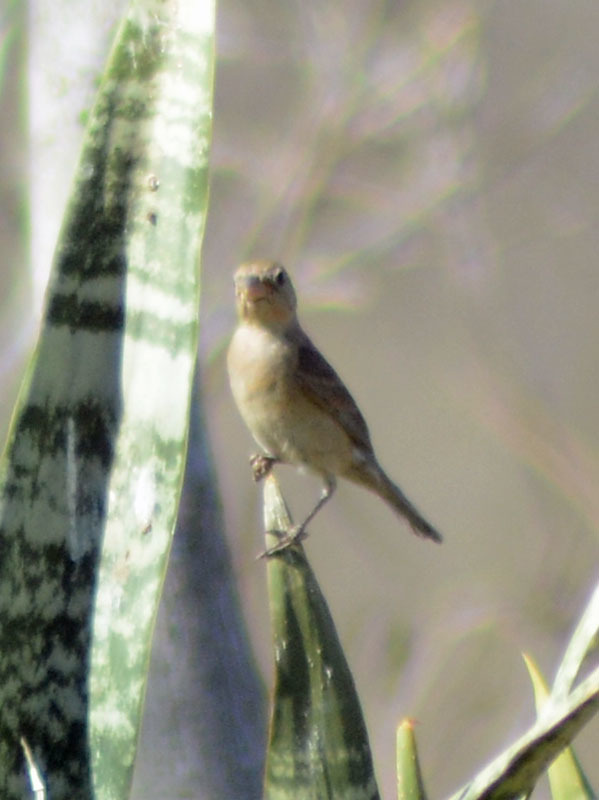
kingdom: Animalia
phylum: Chordata
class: Aves
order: Passeriformes
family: Cardinalidae
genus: Passerina
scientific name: Passerina versicolor
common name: Varied bunting
